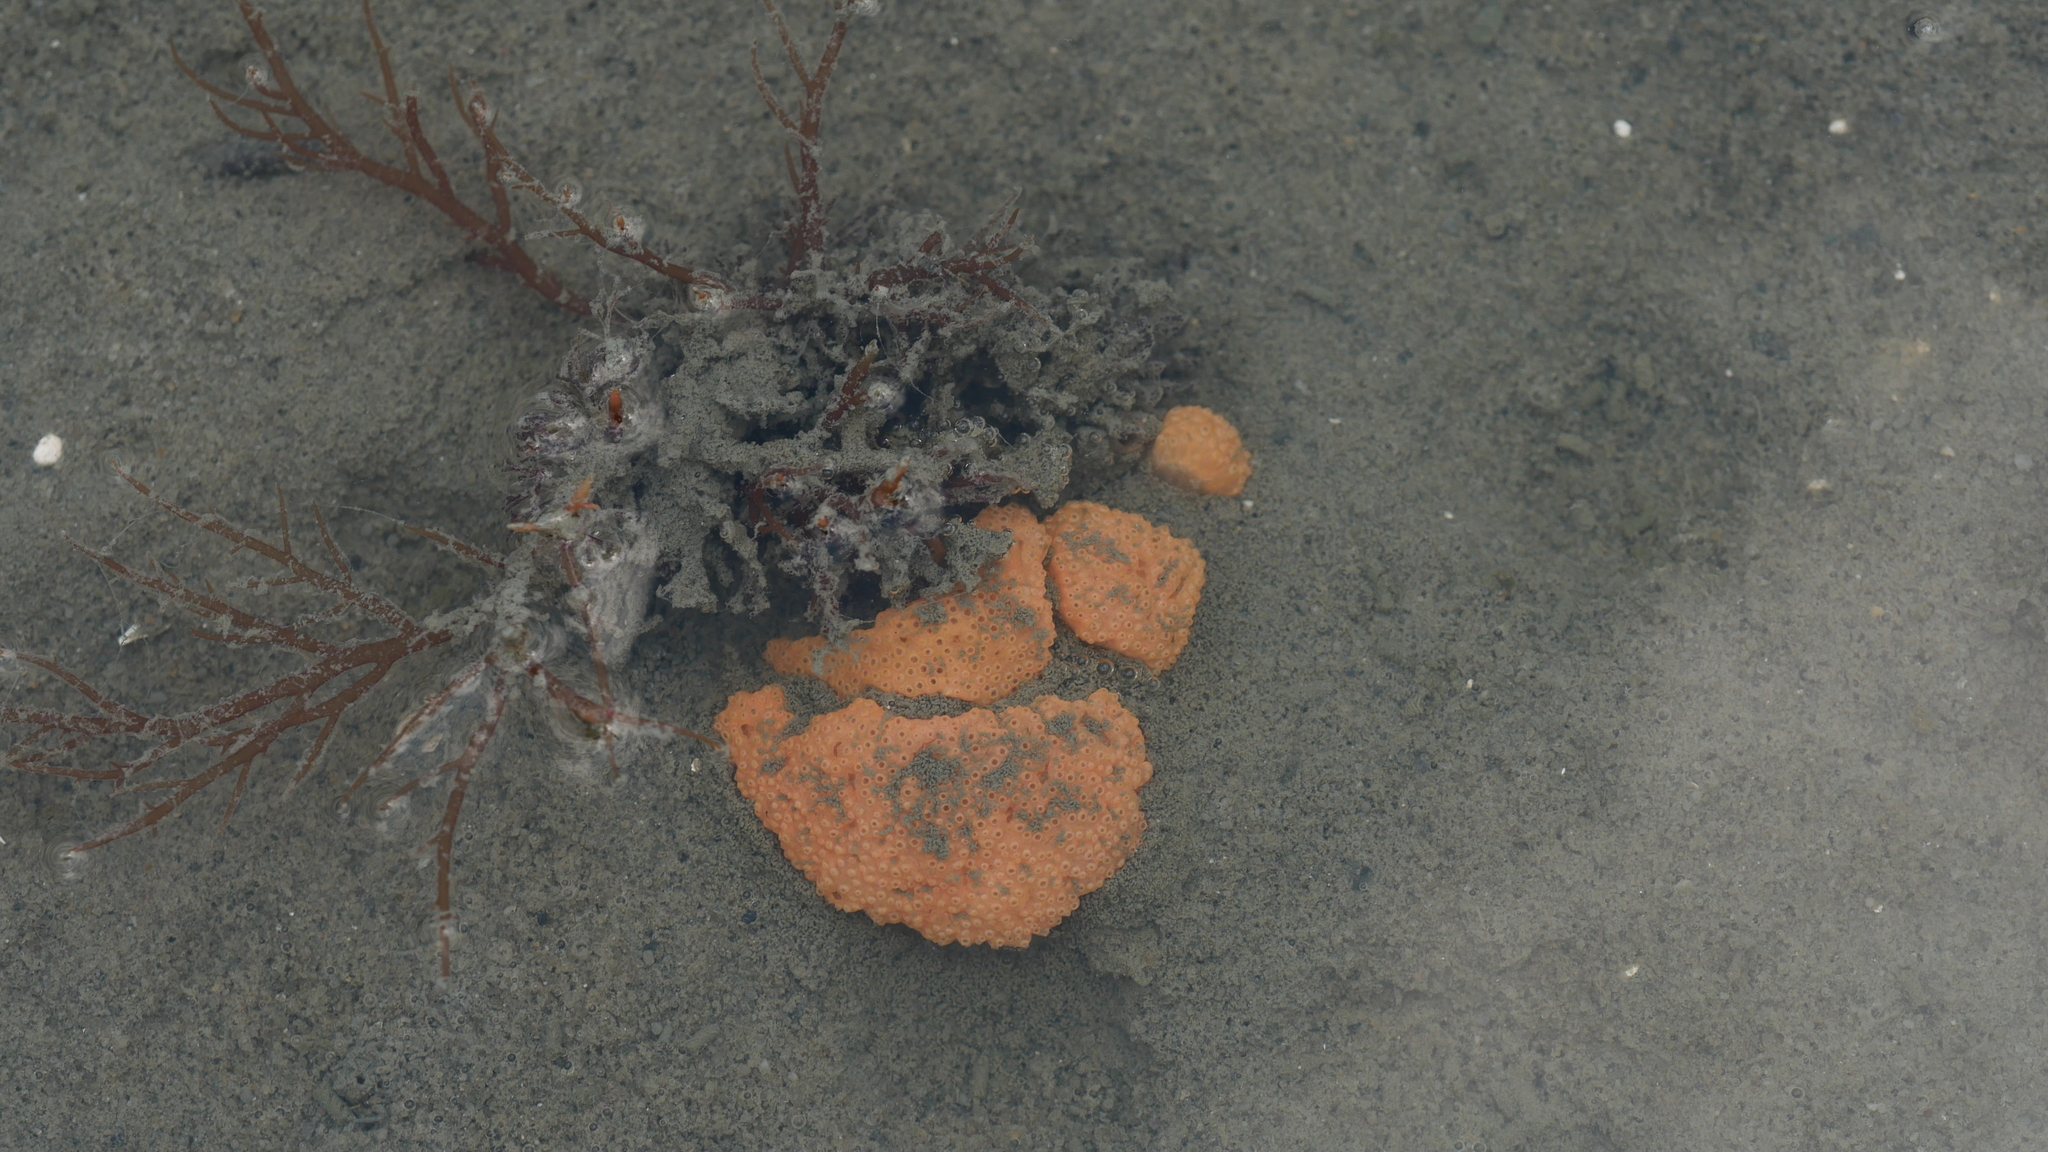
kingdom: Animalia
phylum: Chordata
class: Ascidiacea
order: Aplousobranchia
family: Polyclinidae
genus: Aplidium
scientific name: Aplidium stellatum
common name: Atlantic sea pork
